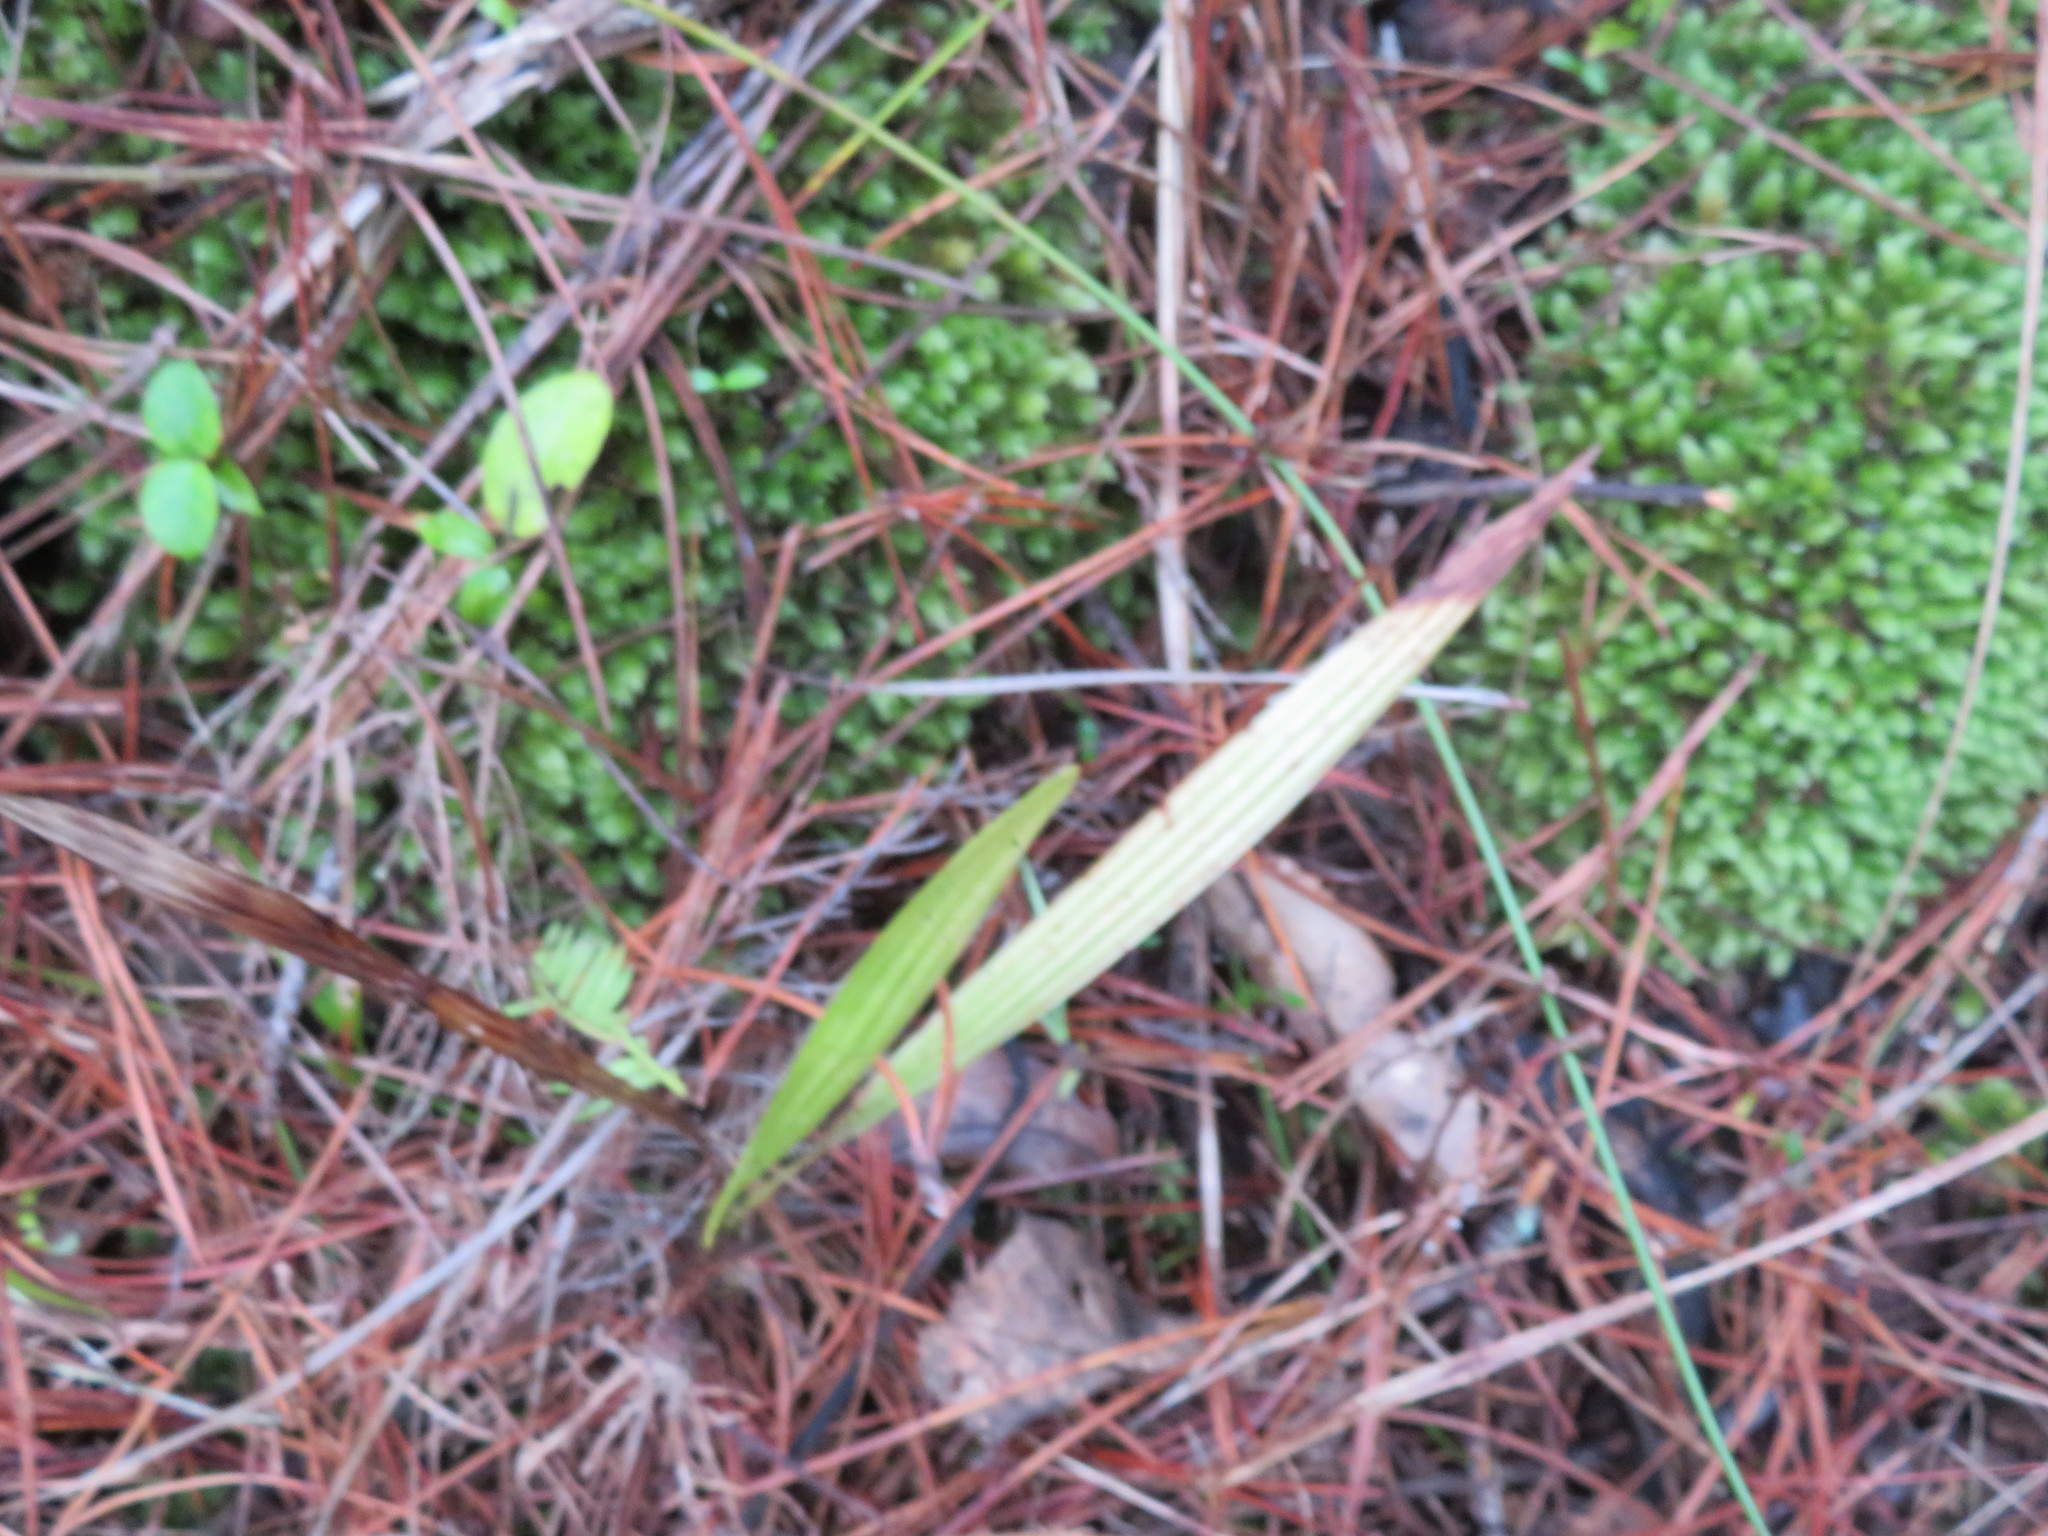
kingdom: Plantae
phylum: Tracheophyta
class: Liliopsida
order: Arecales
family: Arecaceae
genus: Phoenix
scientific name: Phoenix canariensis
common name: Canary island date palm
